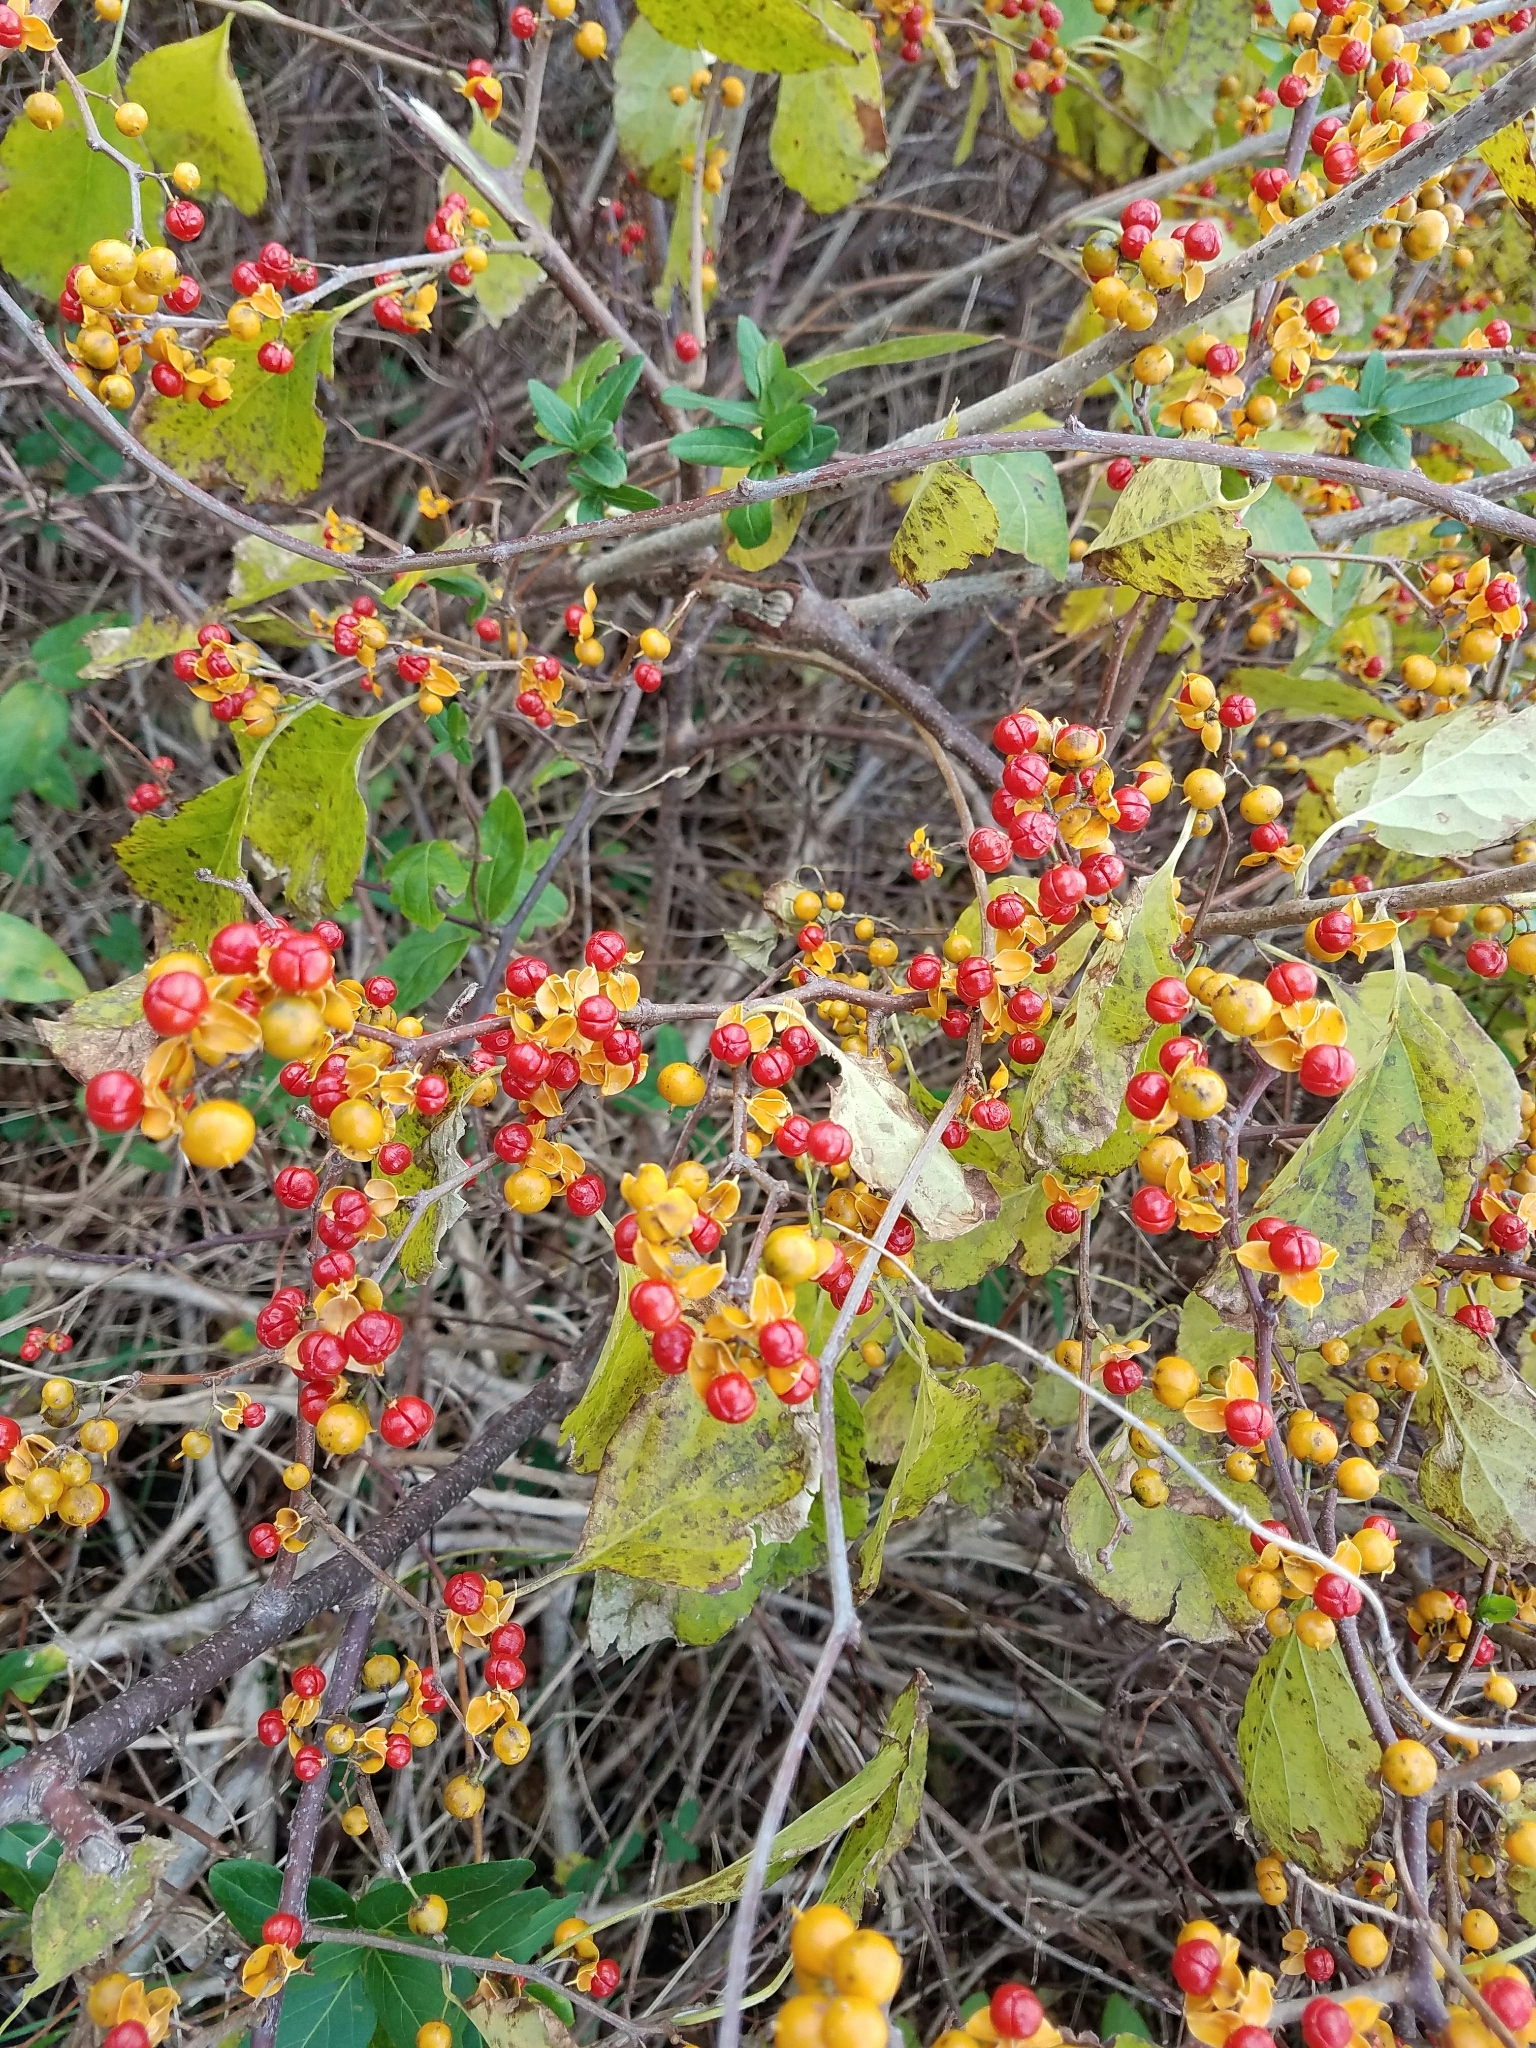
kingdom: Plantae
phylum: Tracheophyta
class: Magnoliopsida
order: Celastrales
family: Celastraceae
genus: Celastrus
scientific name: Celastrus orbiculatus
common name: Oriental bittersweet
